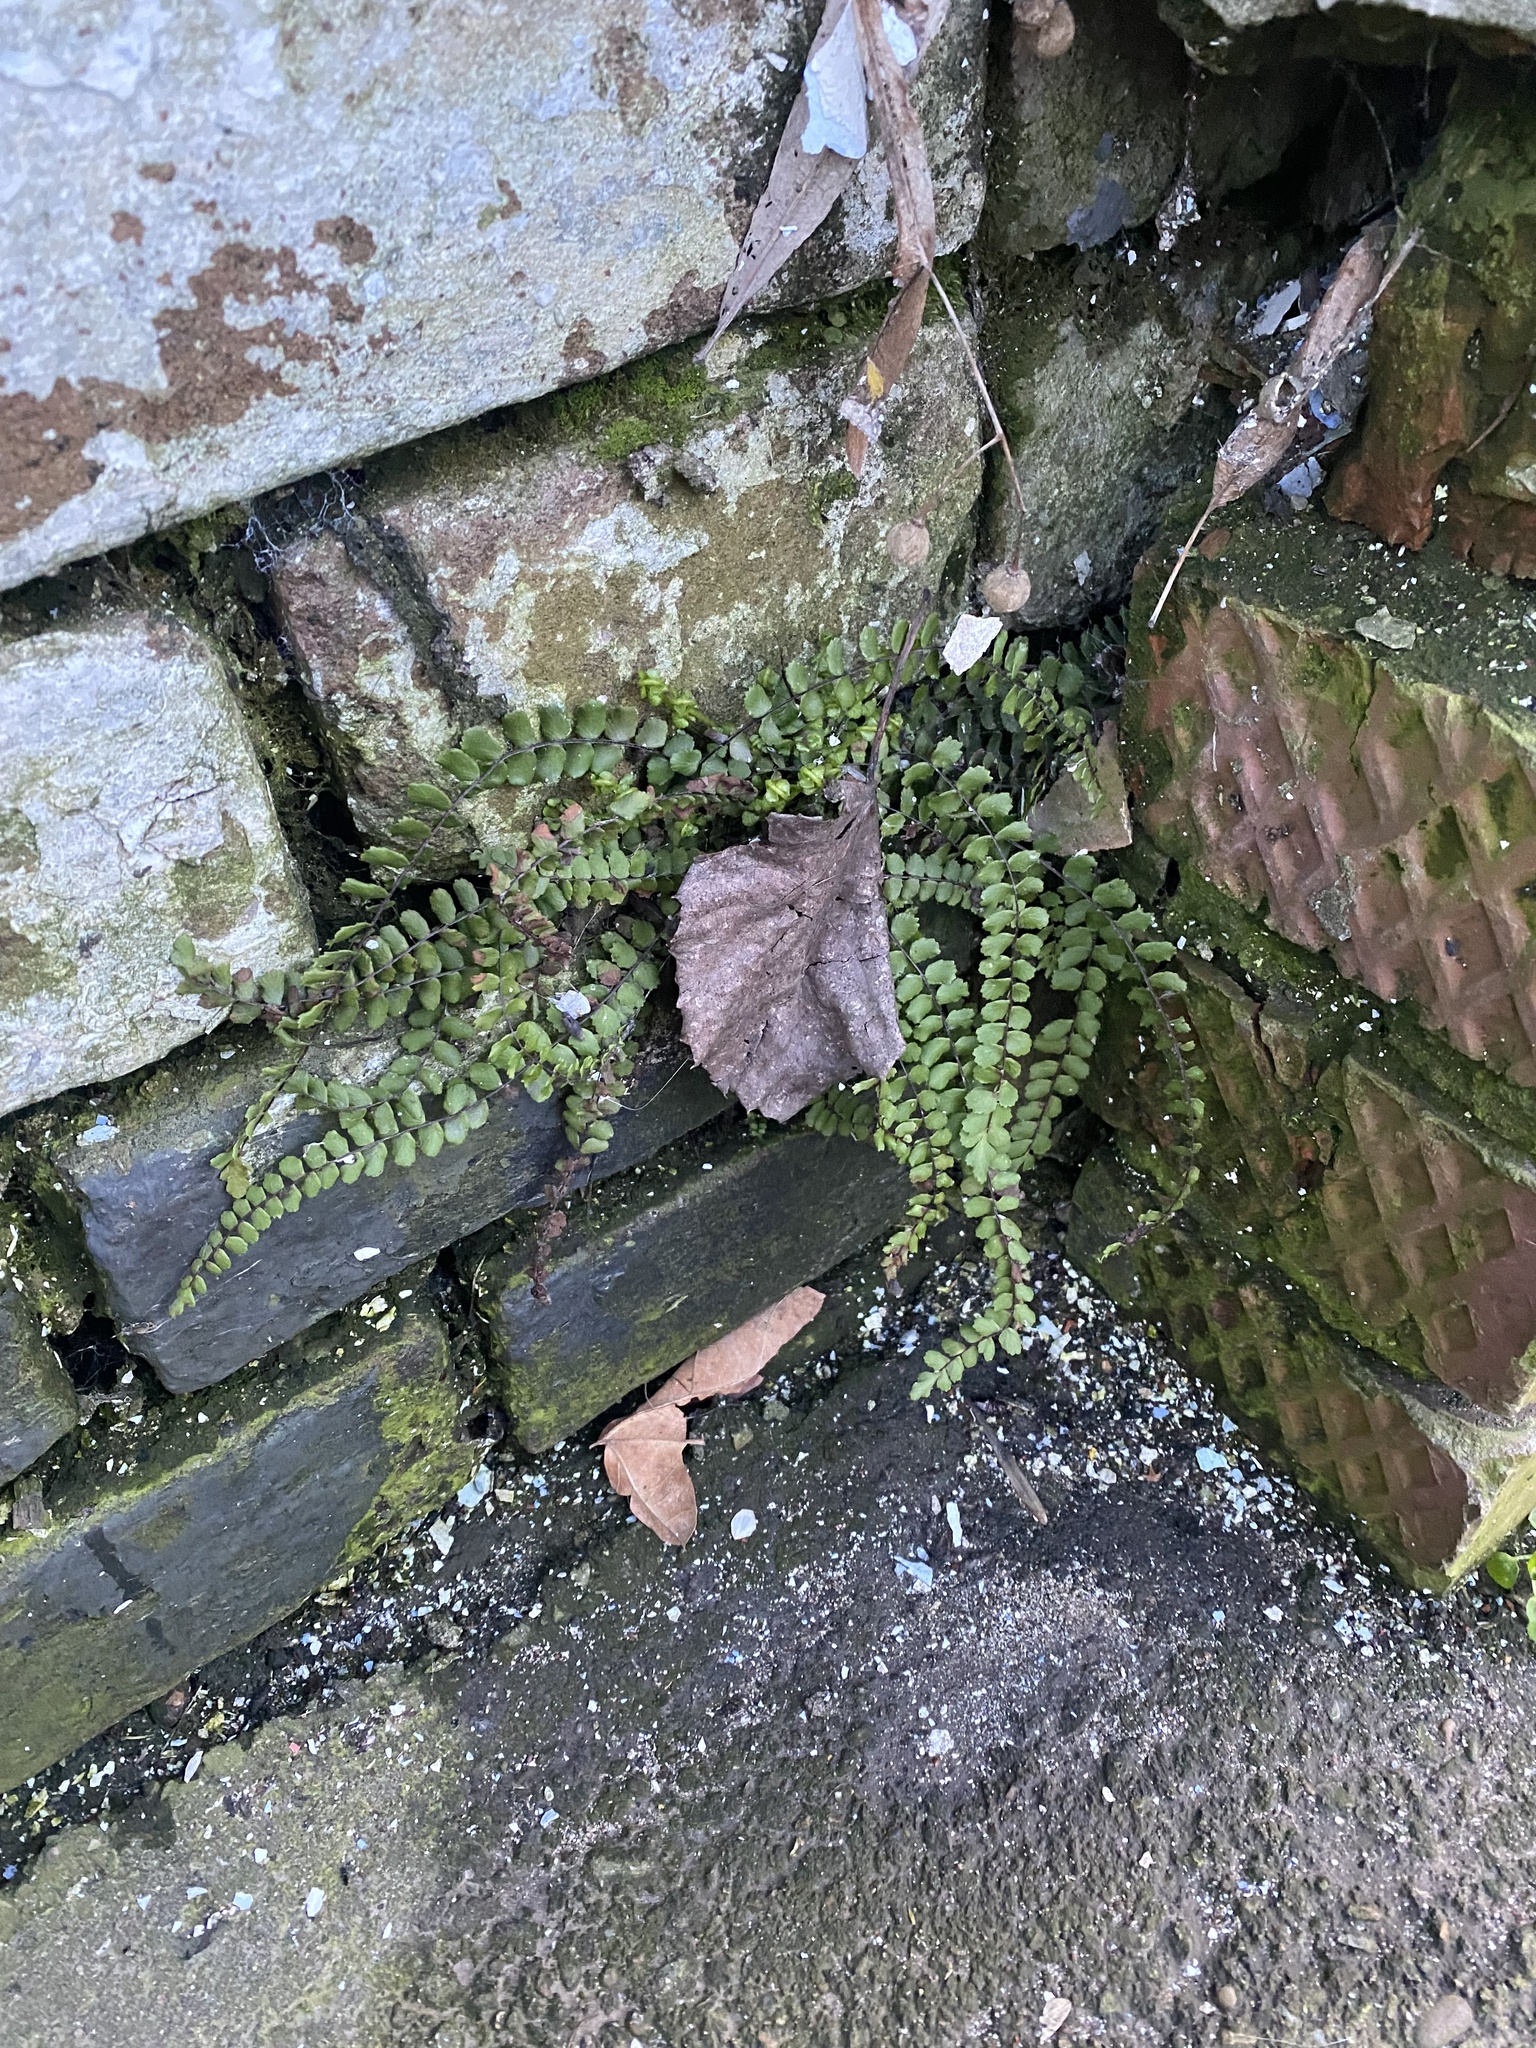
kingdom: Plantae
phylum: Tracheophyta
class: Polypodiopsida
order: Polypodiales
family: Aspleniaceae
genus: Asplenium
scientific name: Asplenium trichomanes
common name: Maidenhair spleenwort
